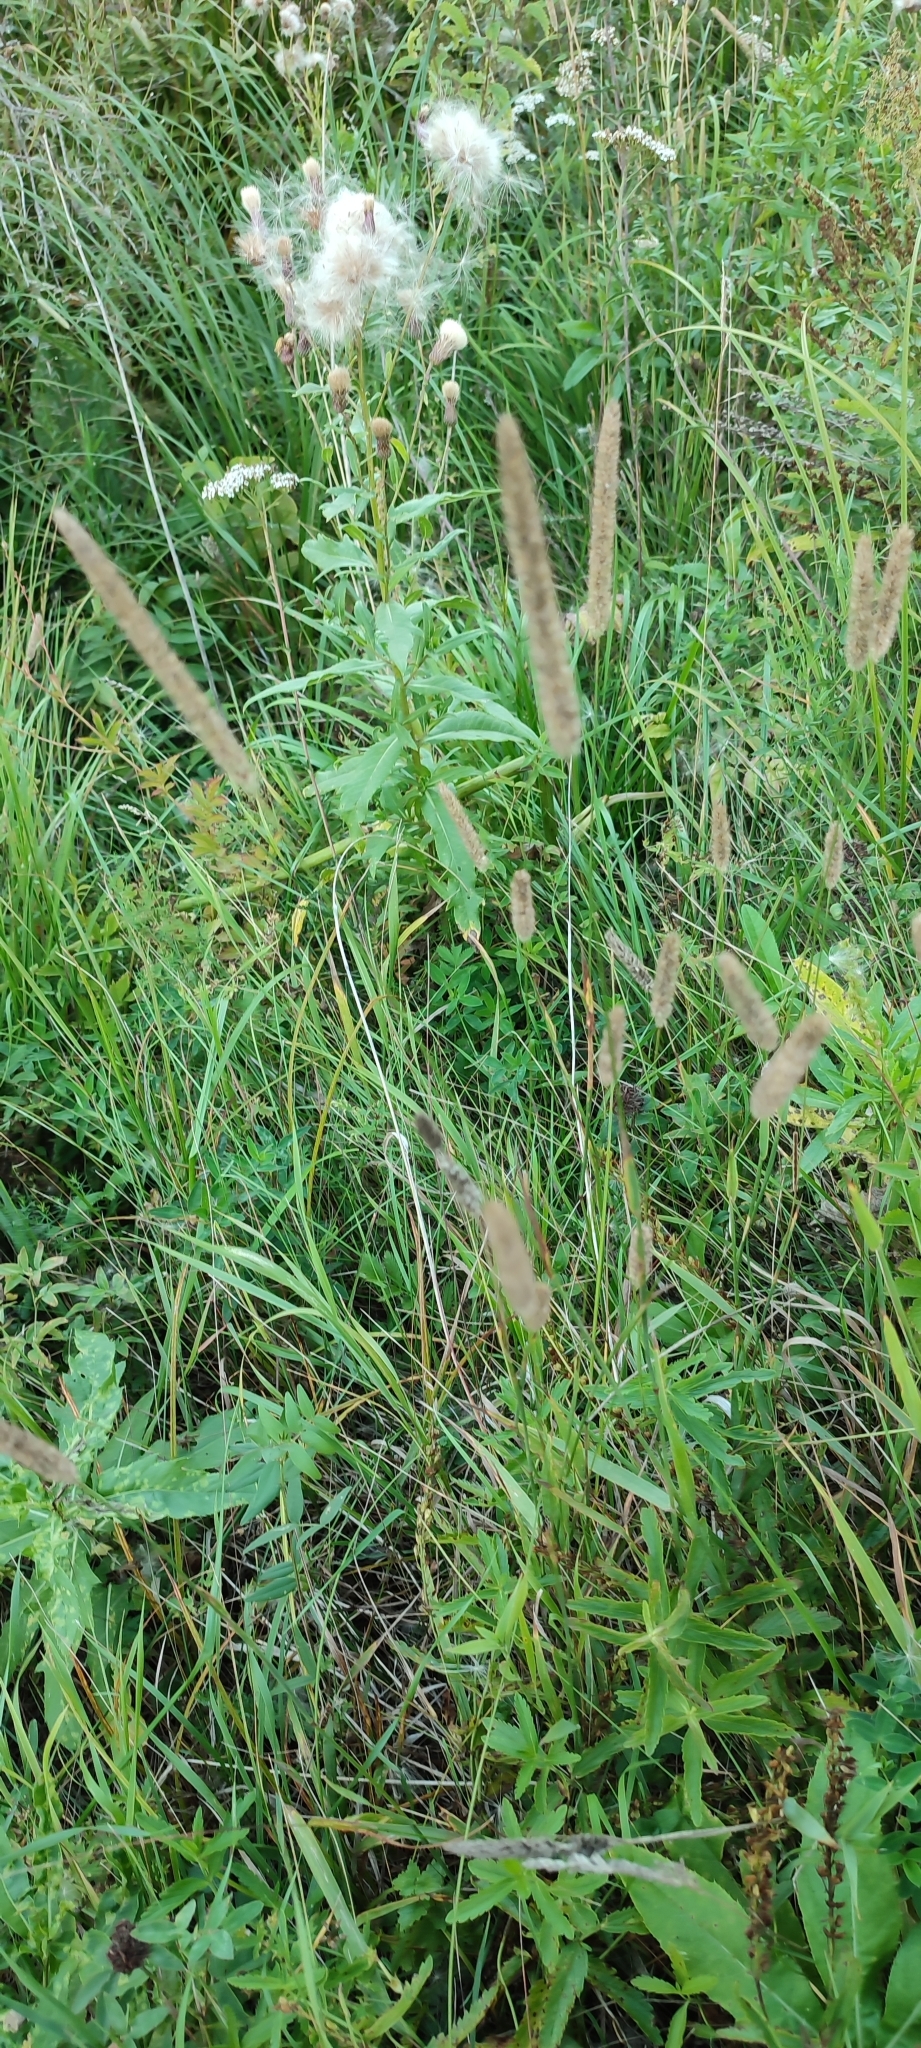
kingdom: Plantae
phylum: Tracheophyta
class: Liliopsida
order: Poales
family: Poaceae
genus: Phleum
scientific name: Phleum pratense
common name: Timothy grass
